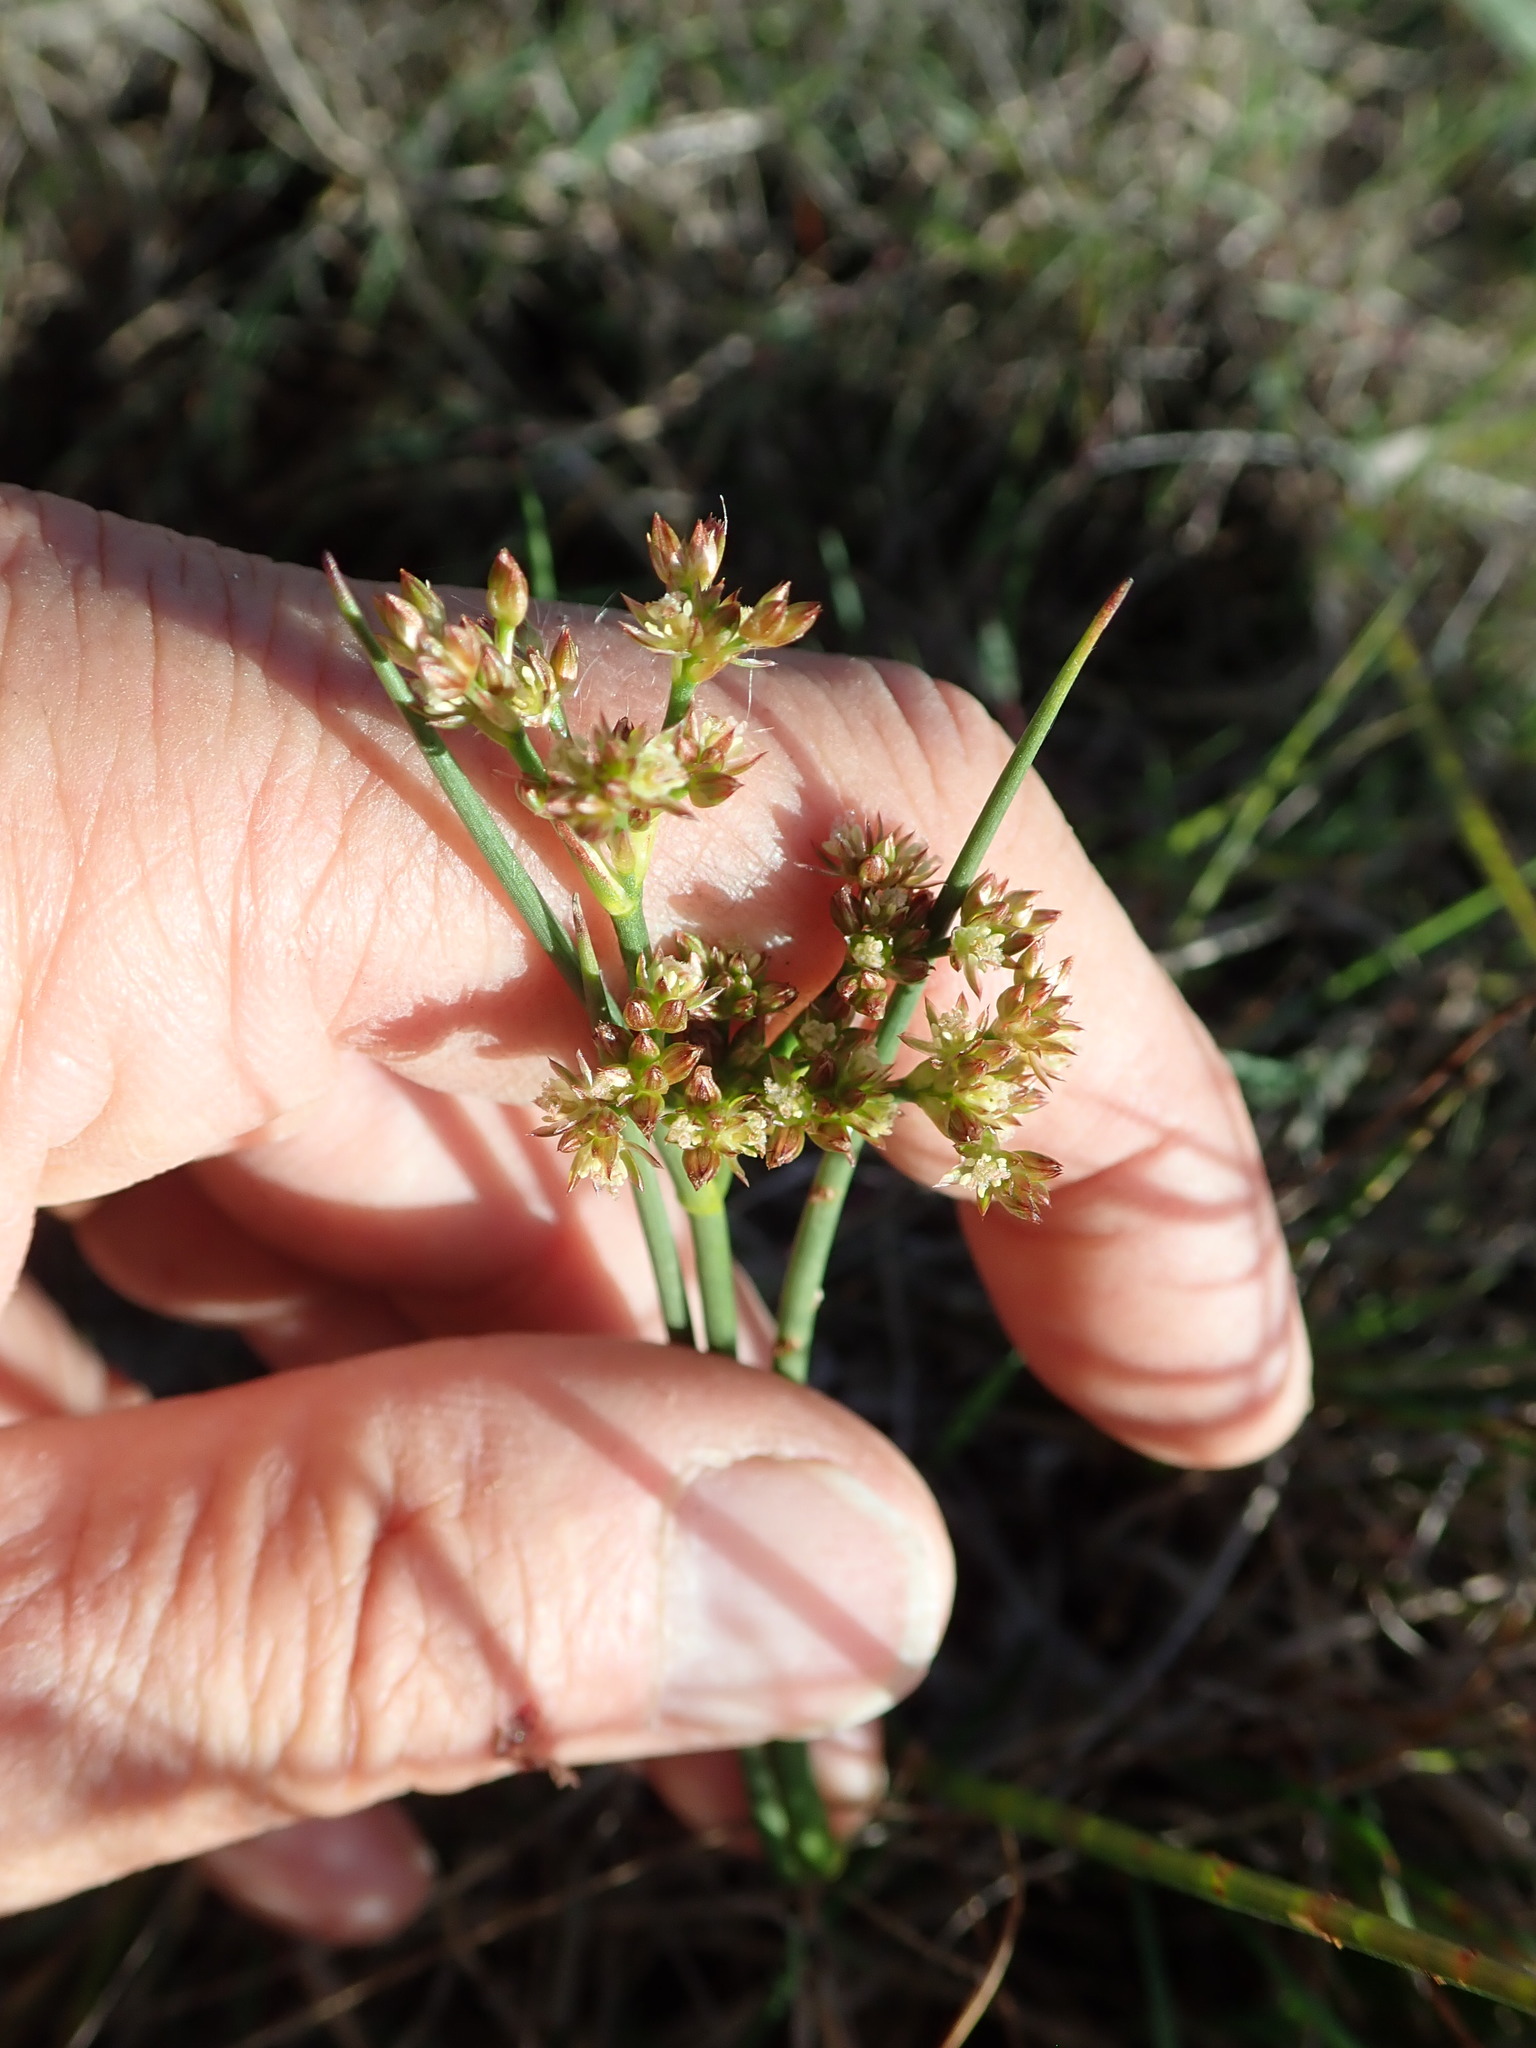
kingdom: Plantae
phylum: Tracheophyta
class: Liliopsida
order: Poales
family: Juncaceae
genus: Juncus
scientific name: Juncus articulatus
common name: Jointed rush
